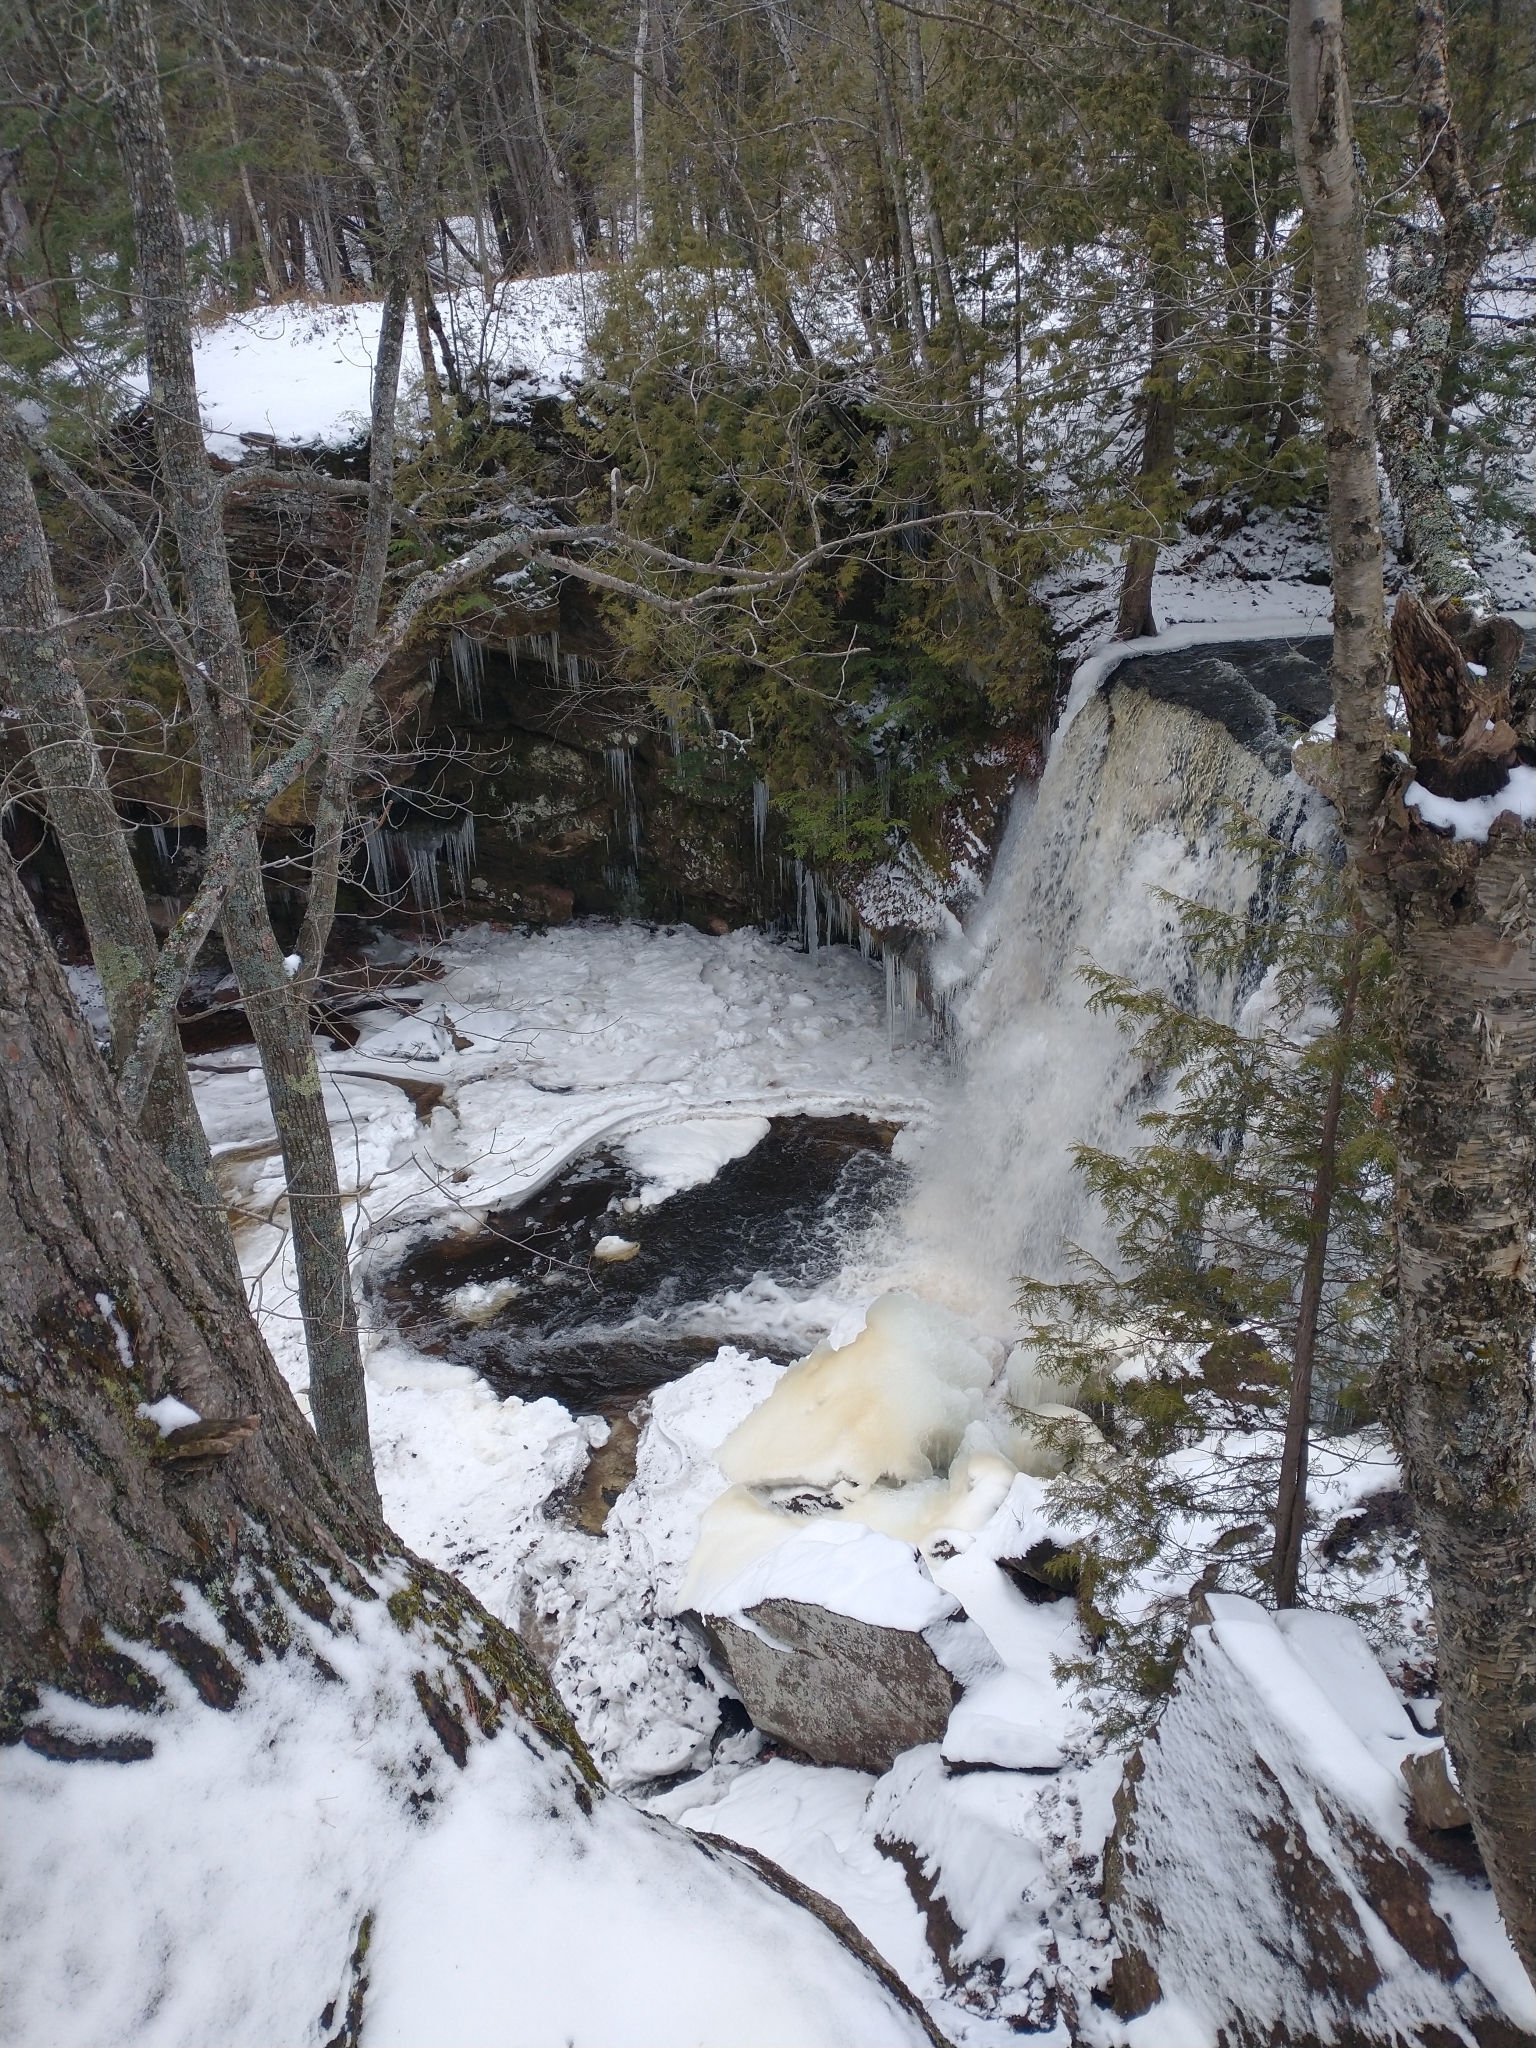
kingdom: Plantae
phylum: Tracheophyta
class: Pinopsida
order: Pinales
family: Cupressaceae
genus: Thuja
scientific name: Thuja occidentalis
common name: Northern white-cedar
